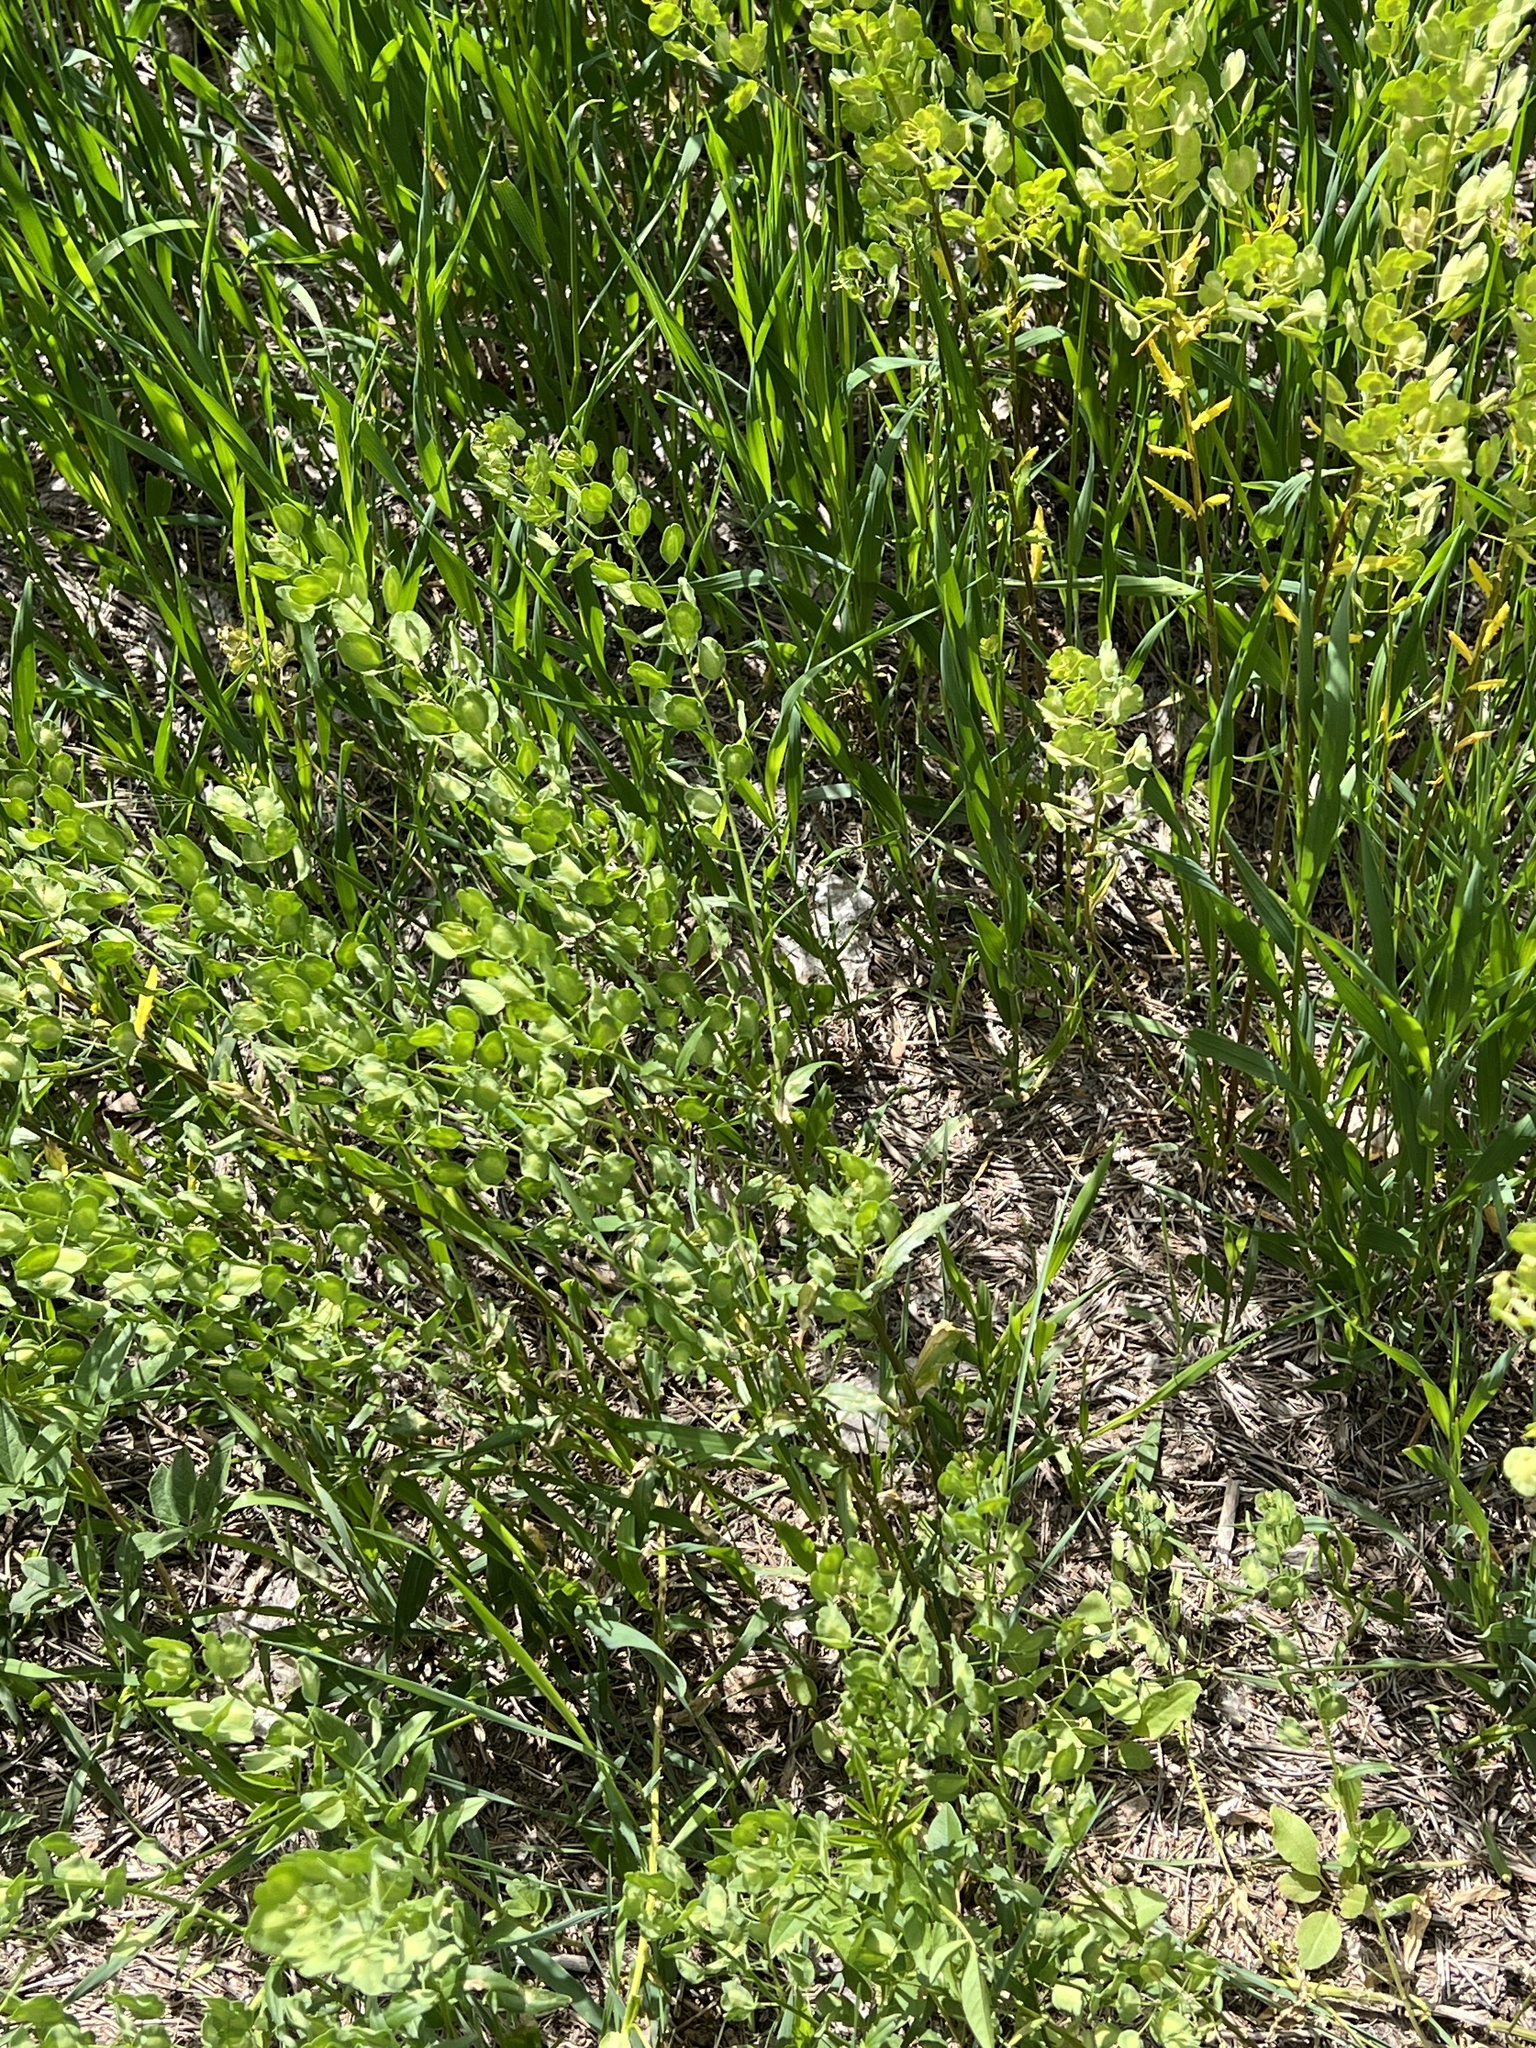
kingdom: Plantae
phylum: Tracheophyta
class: Magnoliopsida
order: Brassicales
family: Brassicaceae
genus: Thlaspi
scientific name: Thlaspi arvense
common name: Field pennycress
